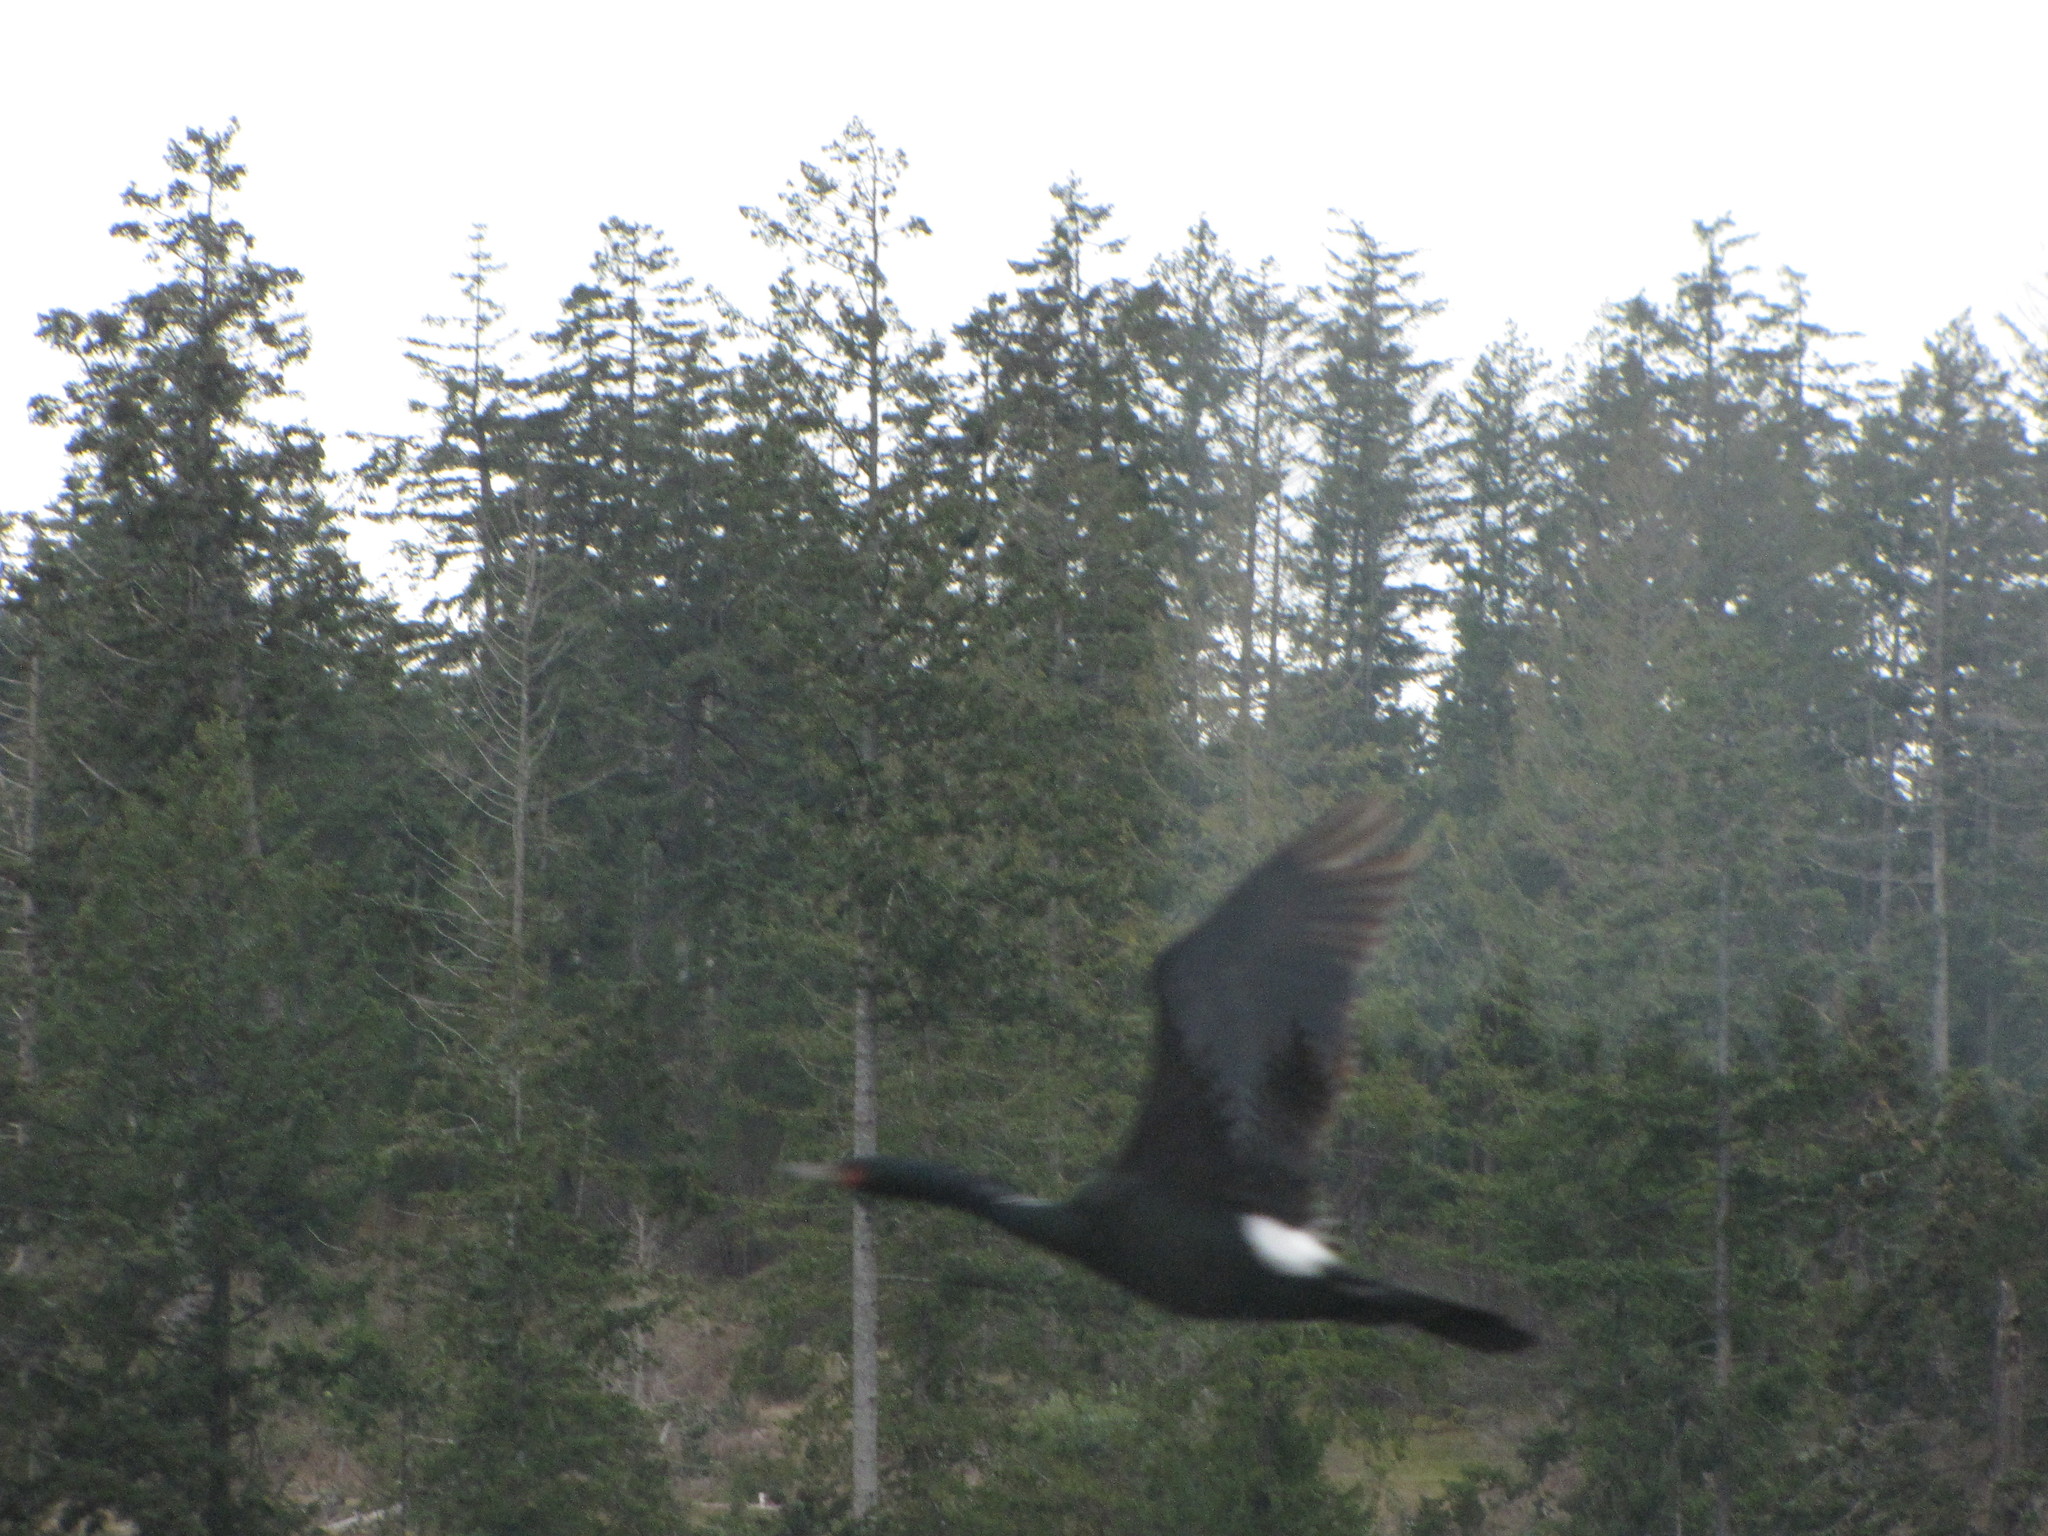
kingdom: Animalia
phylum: Chordata
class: Aves
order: Suliformes
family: Phalacrocoracidae
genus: Phalacrocorax
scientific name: Phalacrocorax pelagicus
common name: Pelagic cormorant
